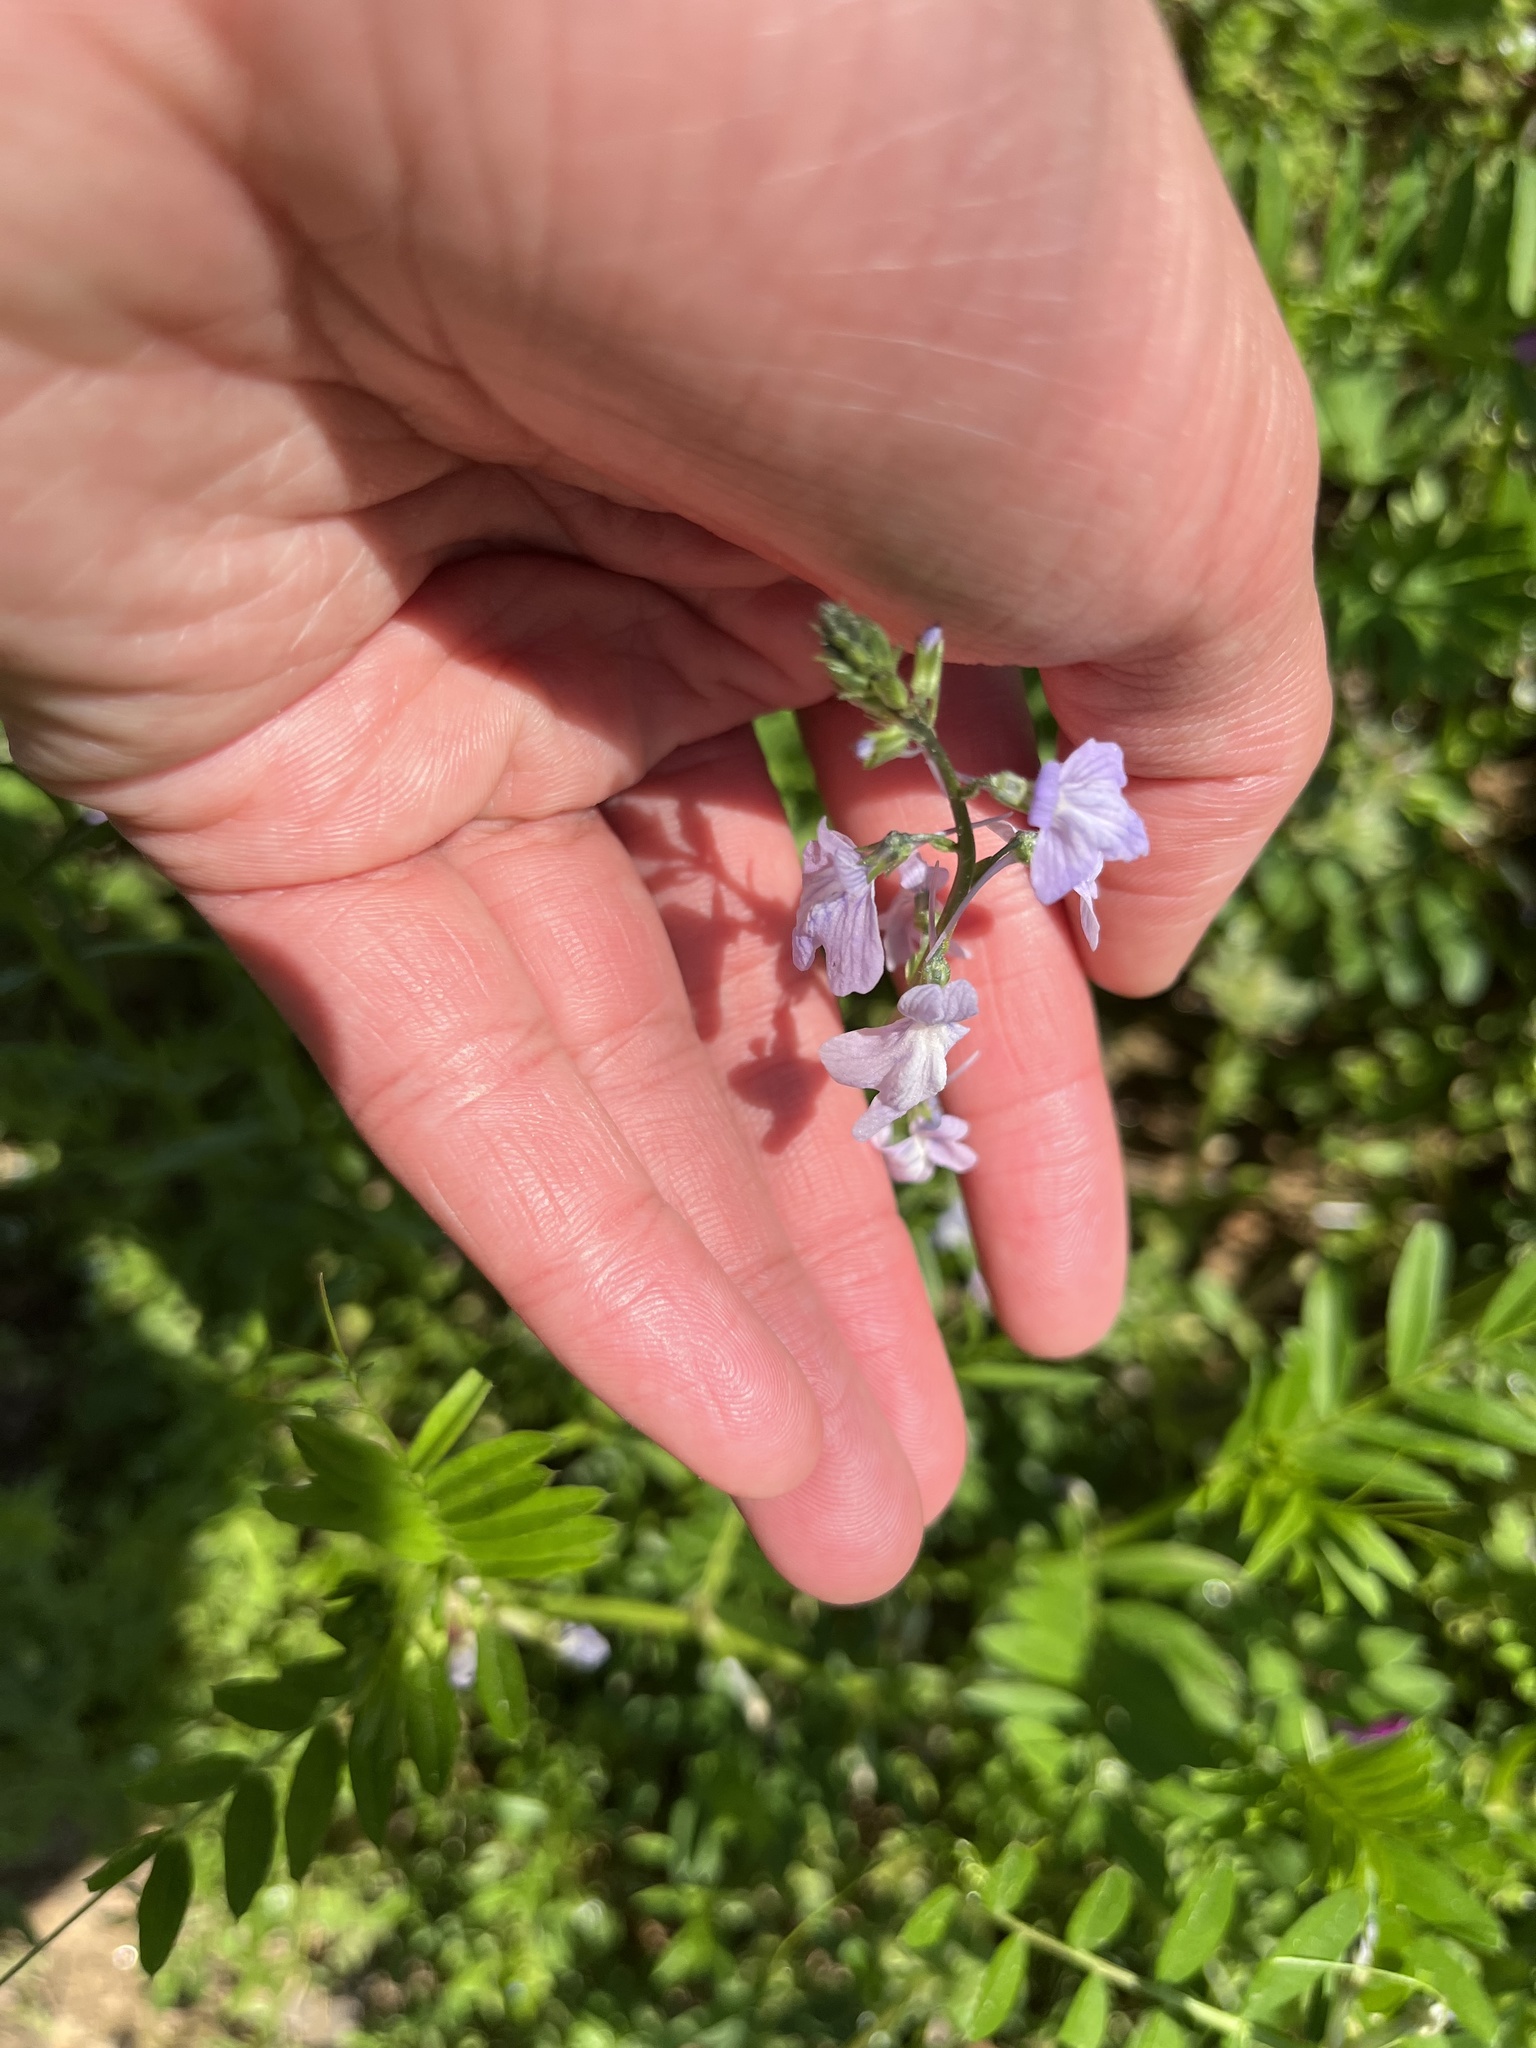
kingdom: Plantae
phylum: Tracheophyta
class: Magnoliopsida
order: Lamiales
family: Plantaginaceae
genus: Nuttallanthus
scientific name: Nuttallanthus texanus
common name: Texas toadflax
